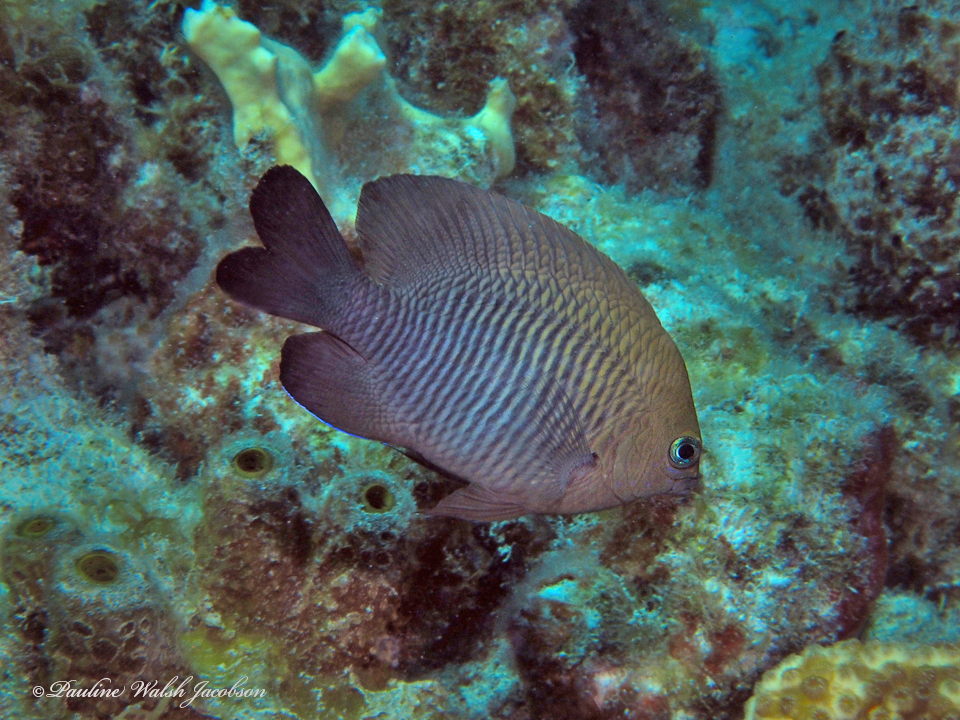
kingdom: Animalia
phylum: Chordata
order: Perciformes
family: Pomacentridae
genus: Stegastes
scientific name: Stegastes diencaeus
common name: Longfin damselfish
